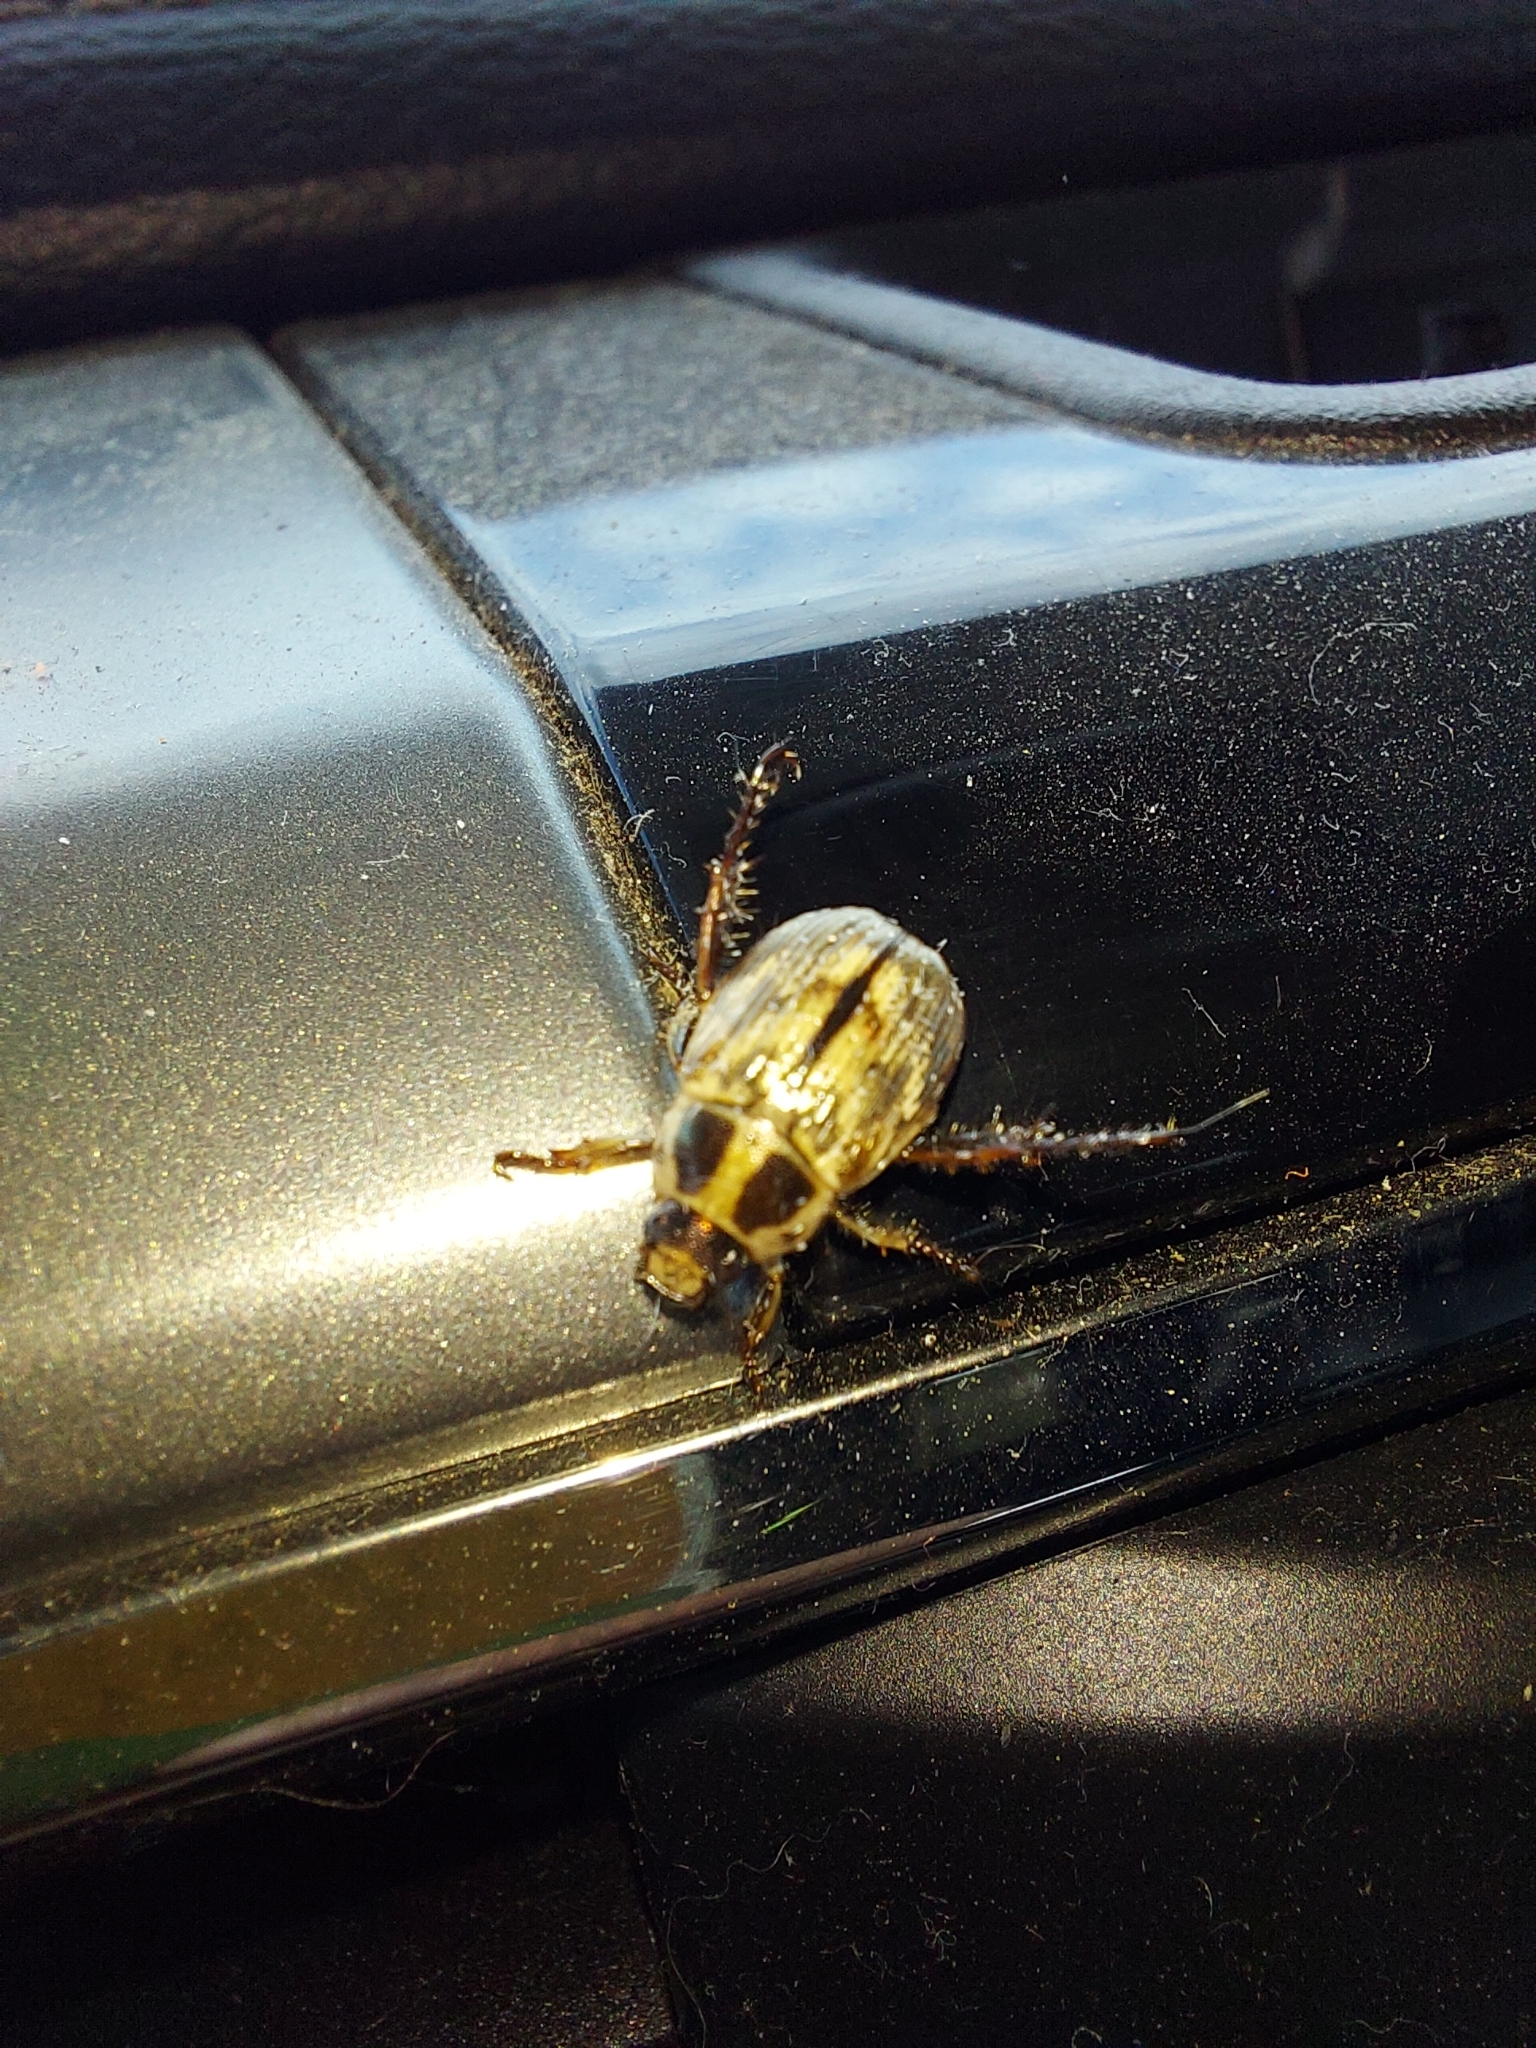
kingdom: Animalia
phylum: Arthropoda
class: Insecta
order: Coleoptera
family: Scarabaeidae
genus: Exomala
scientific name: Exomala orientalis
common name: Oriental beetle
